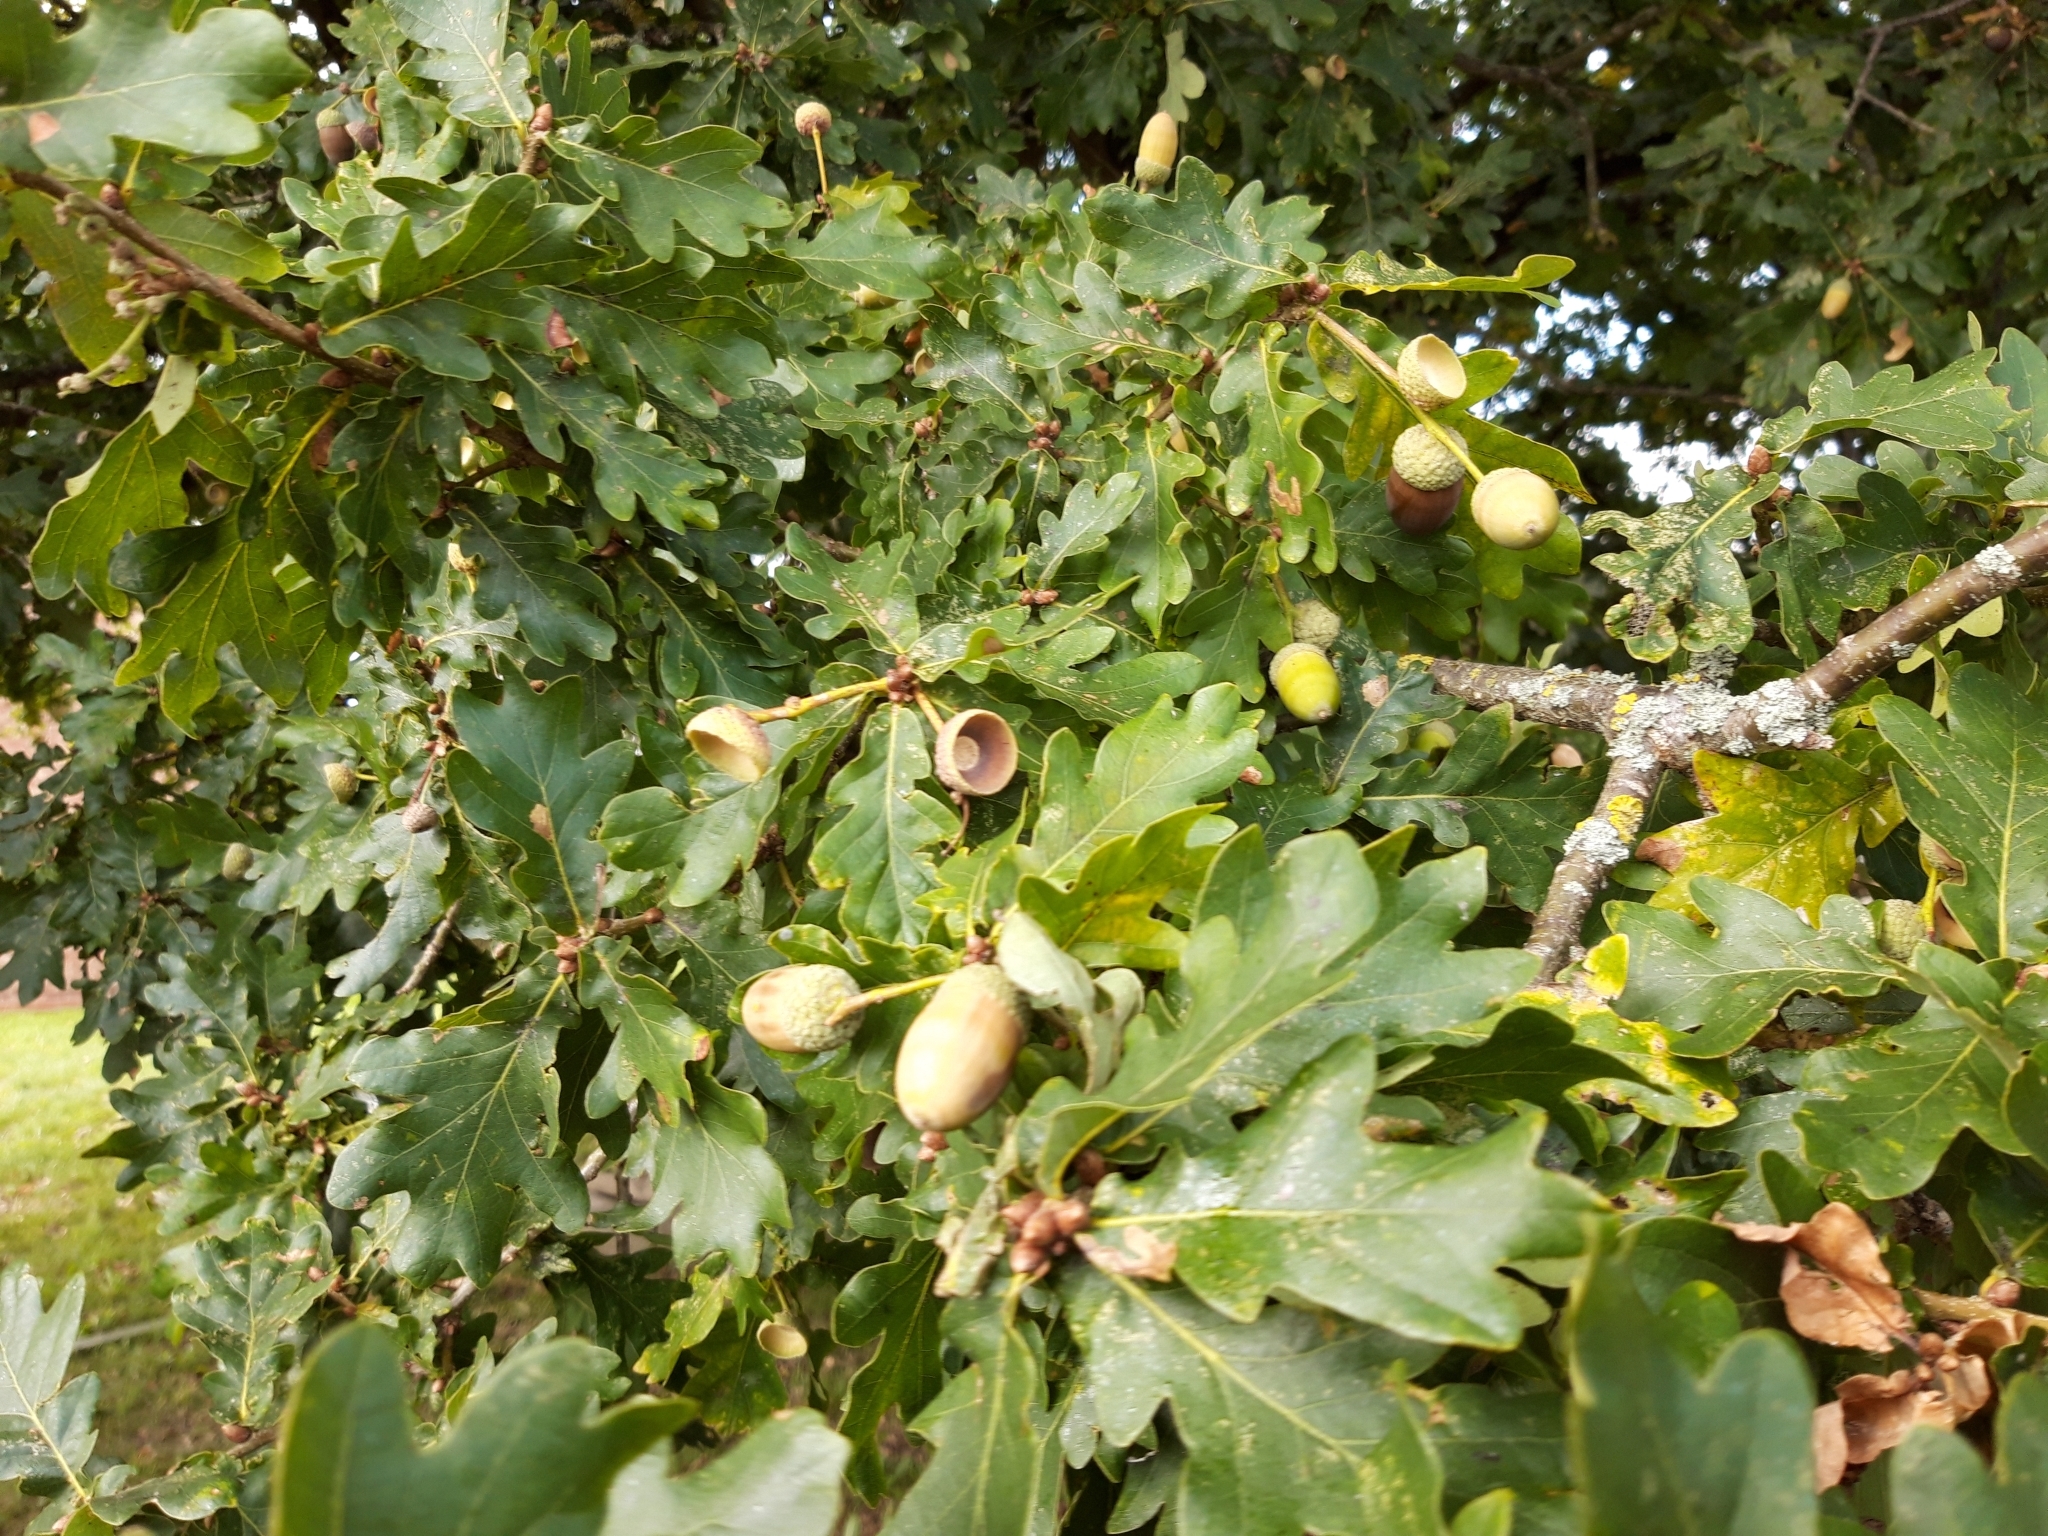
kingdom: Plantae
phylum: Tracheophyta
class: Magnoliopsida
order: Fagales
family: Fagaceae
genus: Quercus
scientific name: Quercus robur
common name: Pedunculate oak
